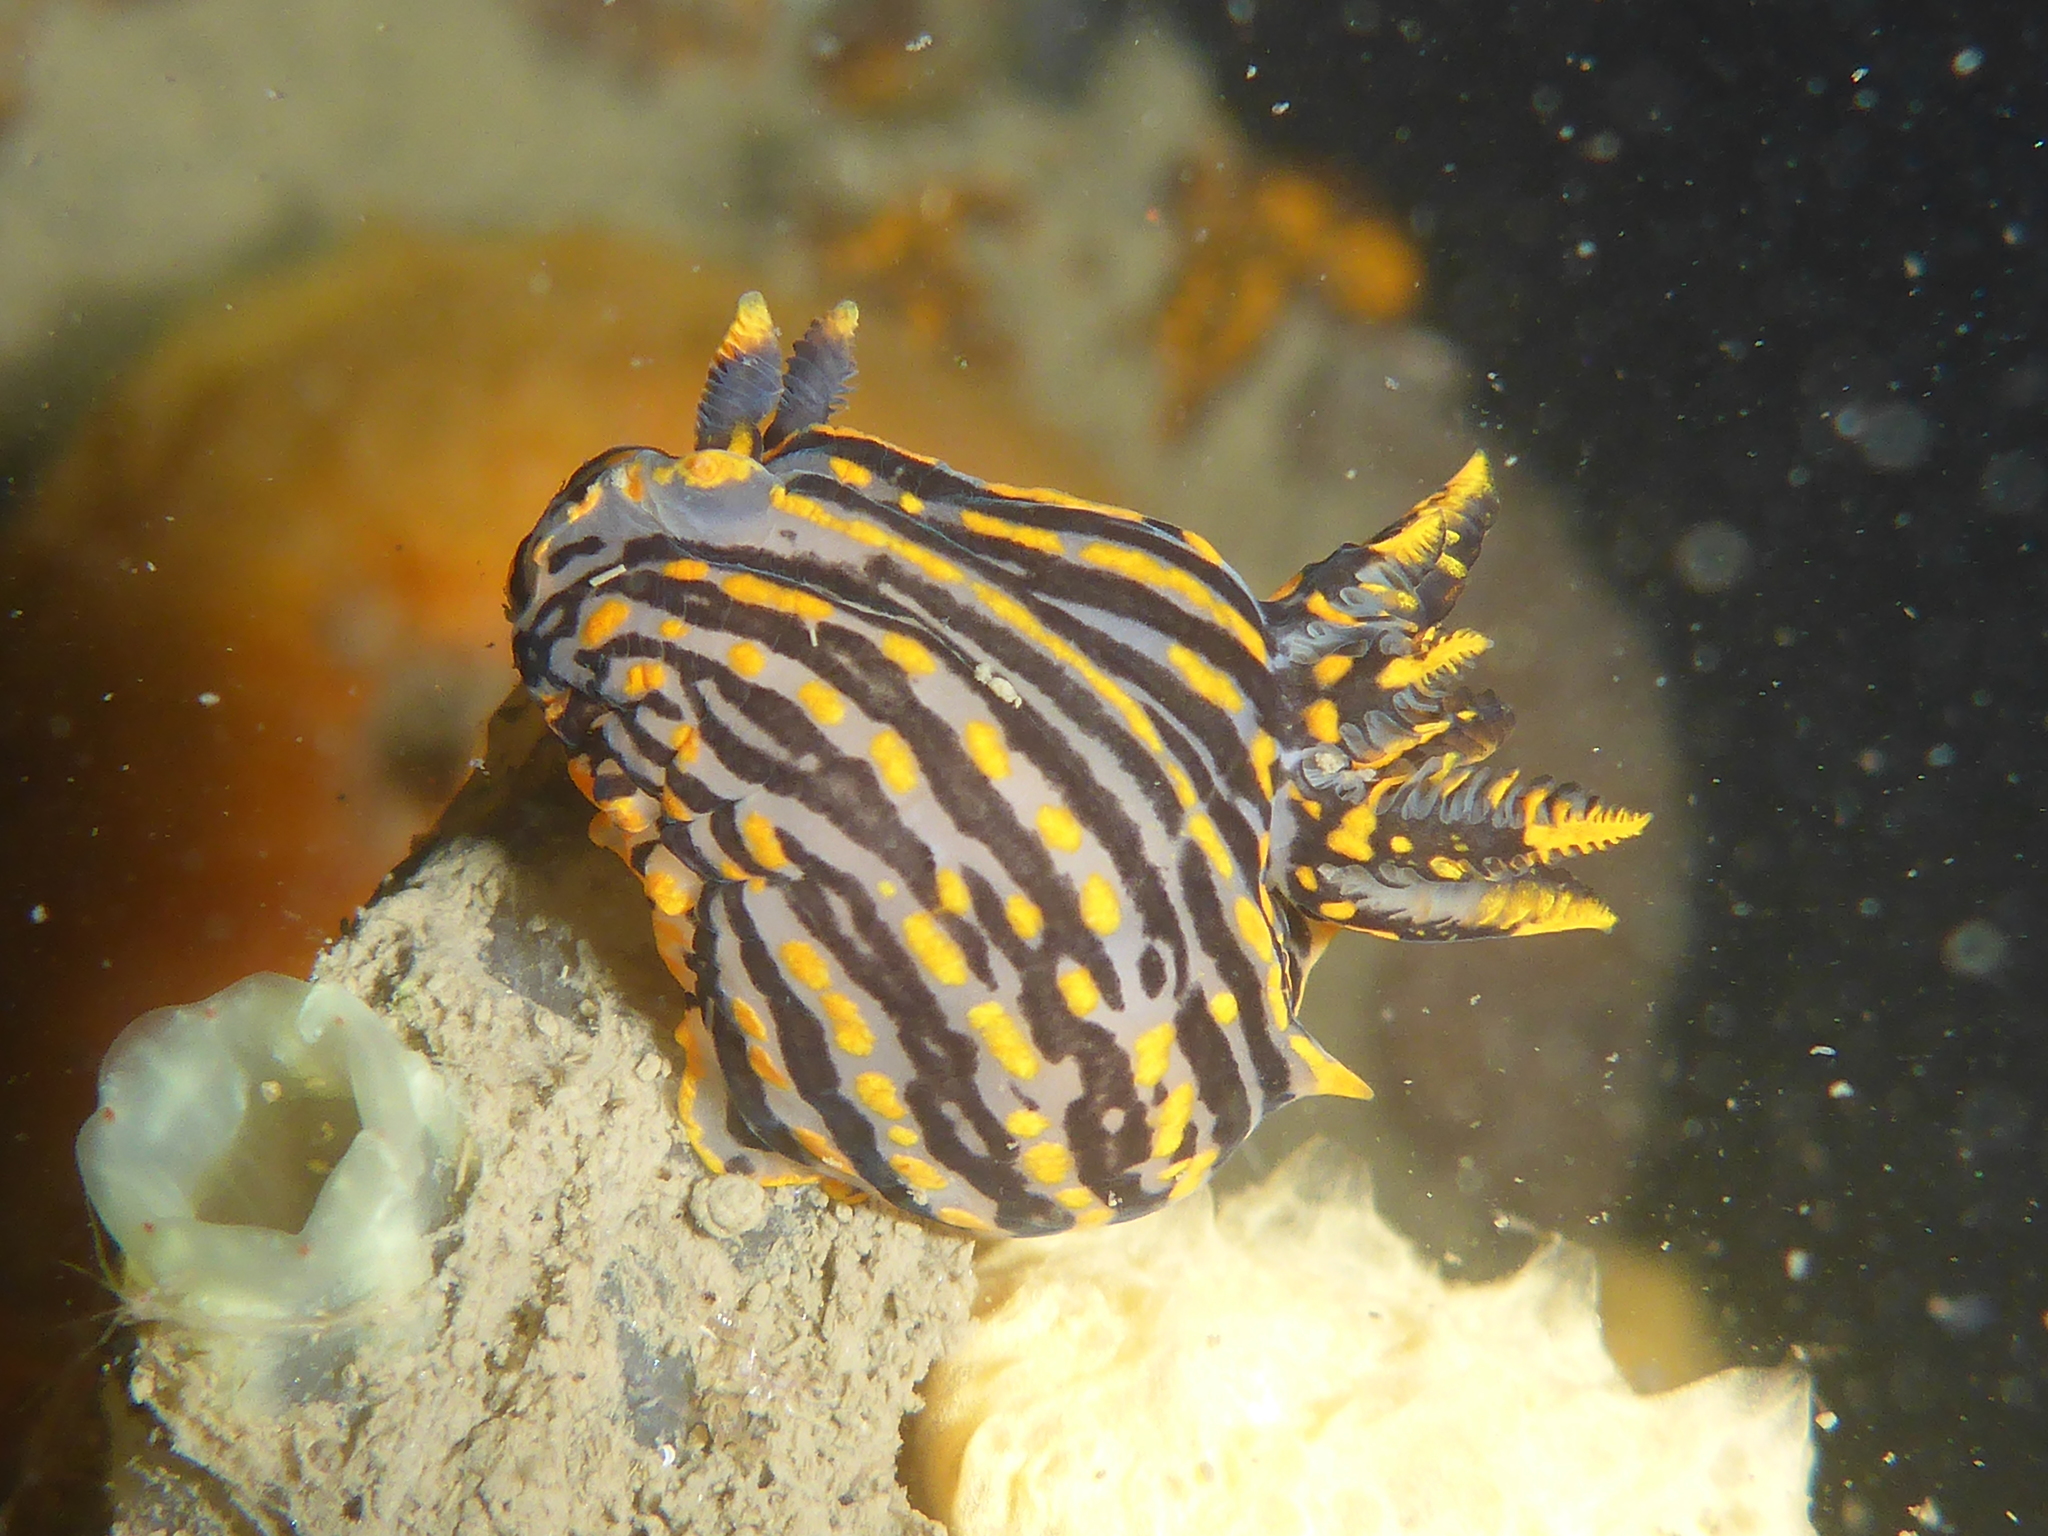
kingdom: Animalia
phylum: Mollusca
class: Gastropoda
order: Nudibranchia
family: Polyceridae
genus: Polycera
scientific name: Polycera atra
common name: Orange-spike polycera
